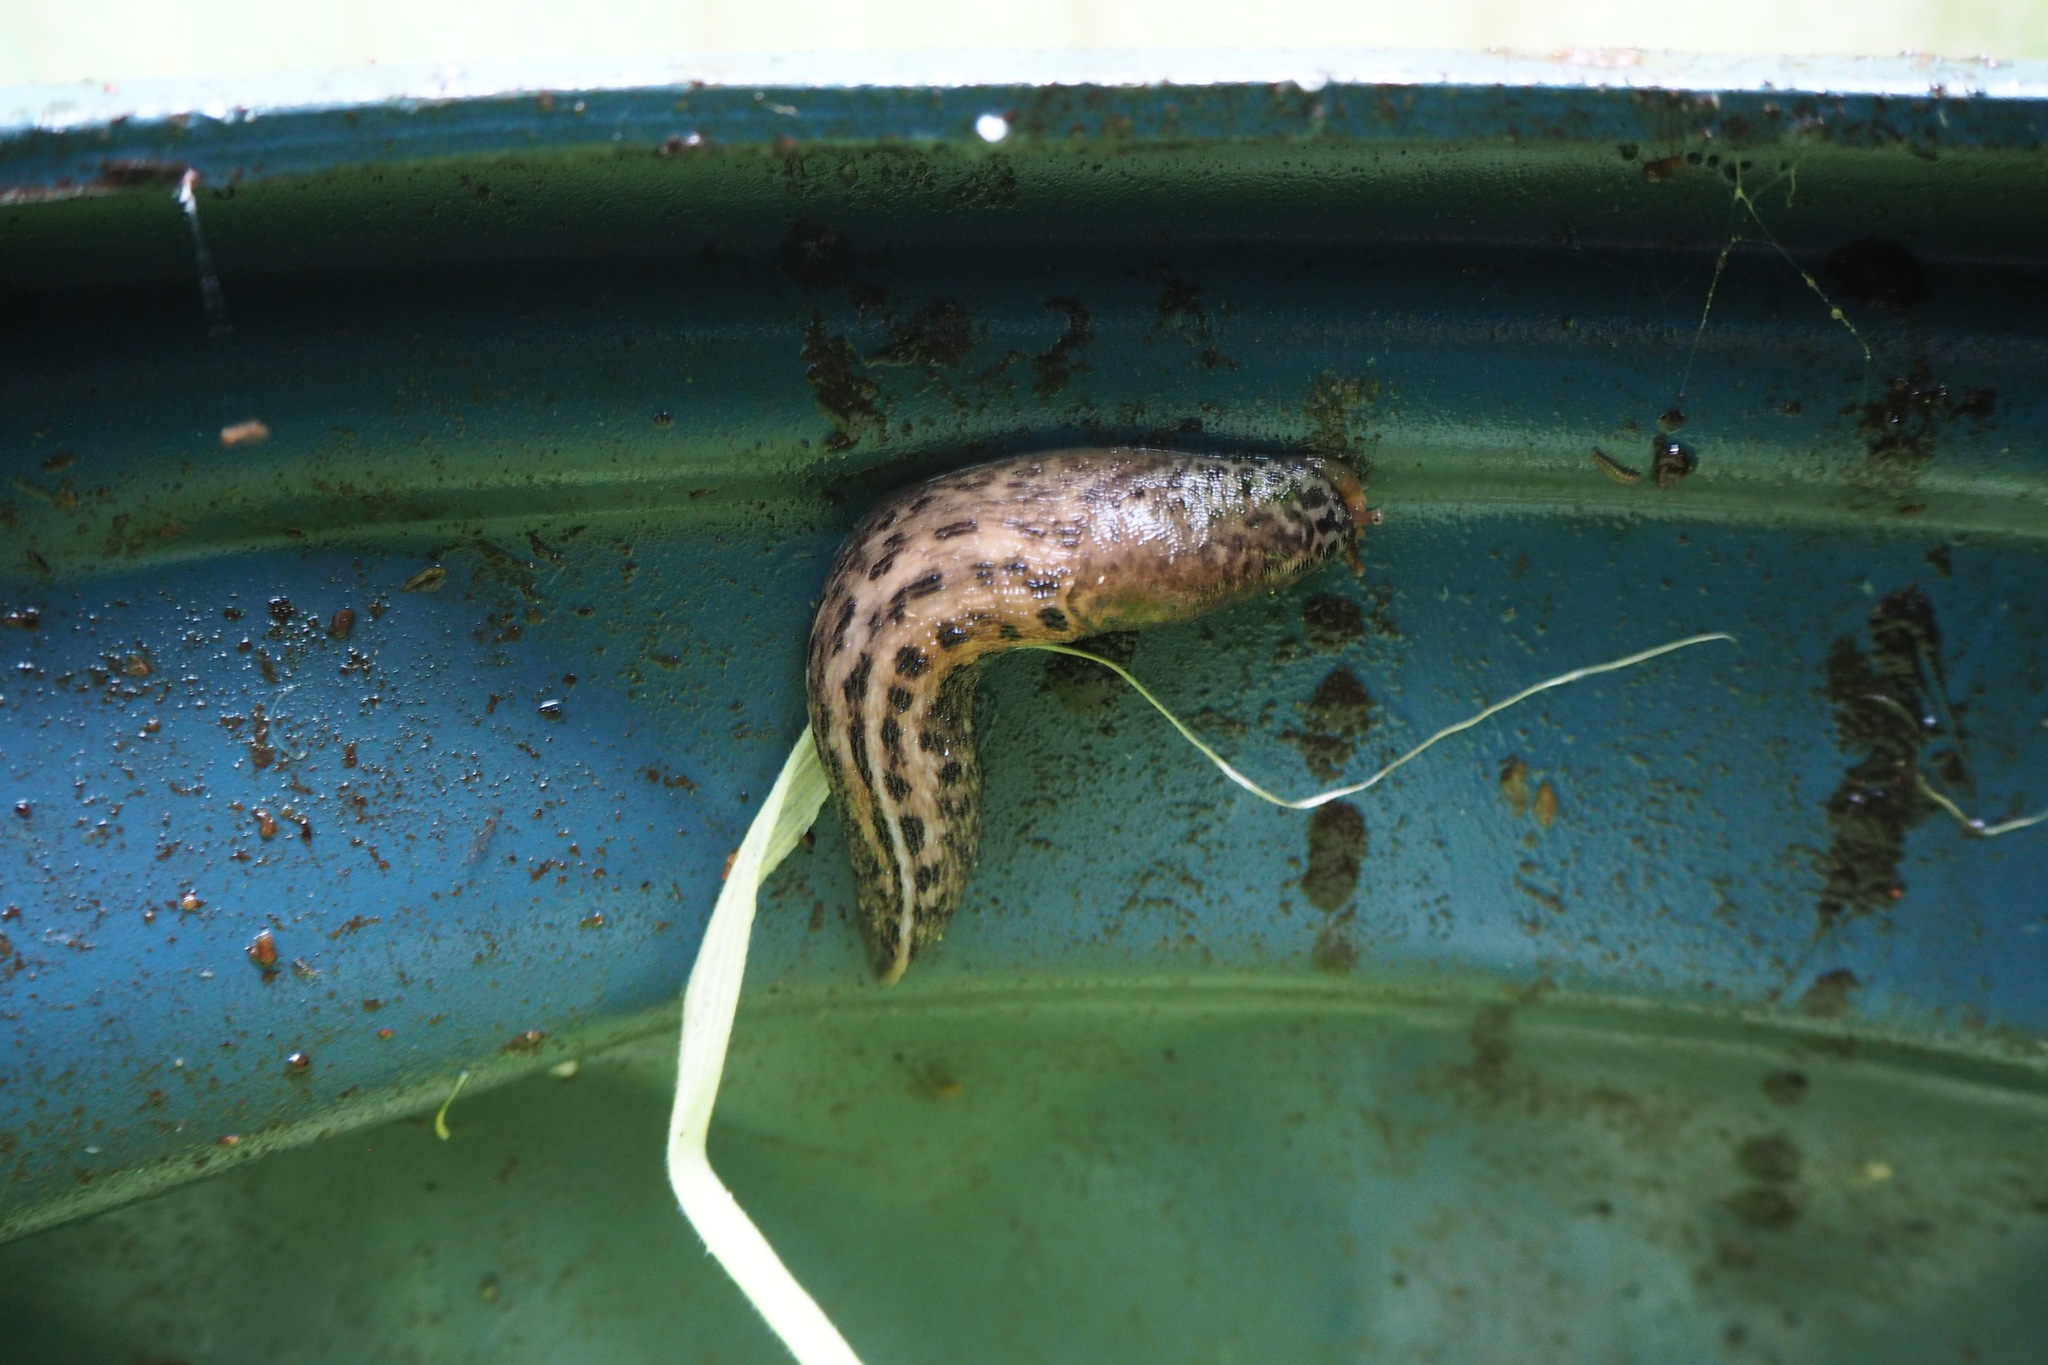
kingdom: Animalia
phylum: Mollusca
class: Gastropoda
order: Stylommatophora
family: Limacidae
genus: Limax
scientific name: Limax maximus
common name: Great grey slug
